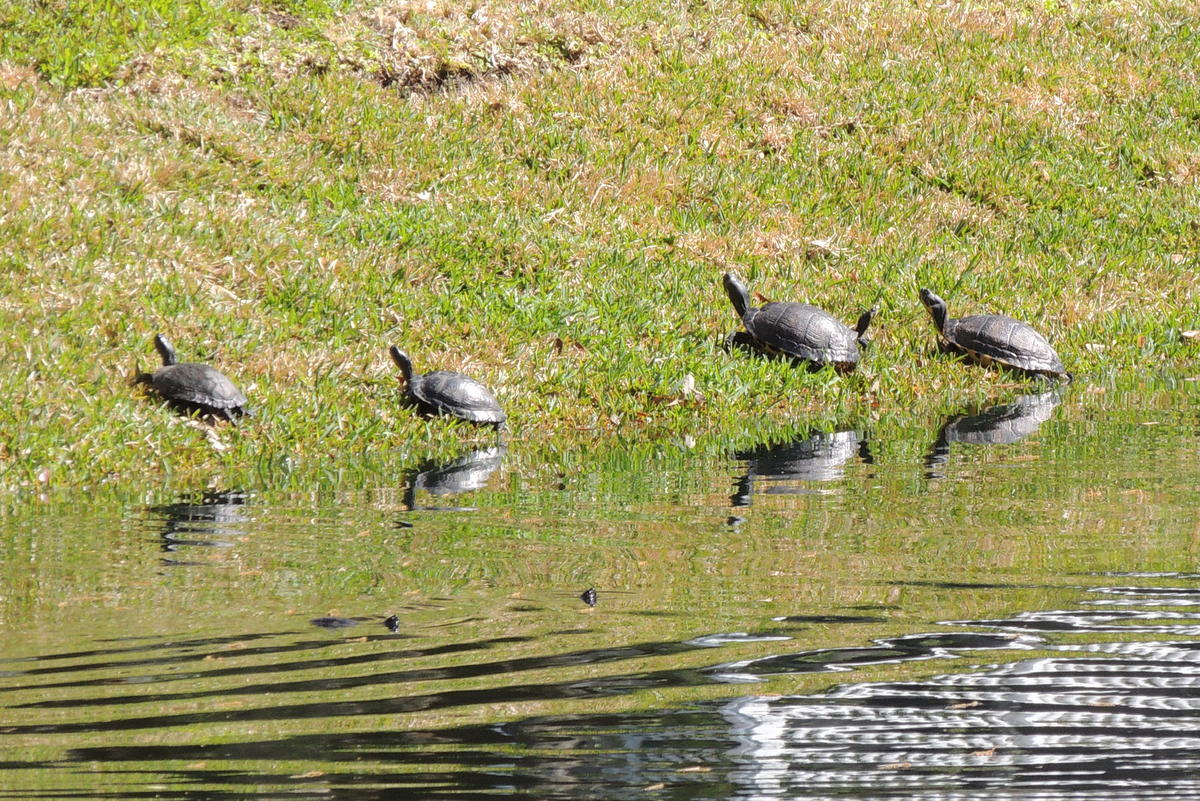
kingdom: Animalia
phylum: Chordata
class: Testudines
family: Emydidae
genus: Trachemys
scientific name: Trachemys scripta
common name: Slider
